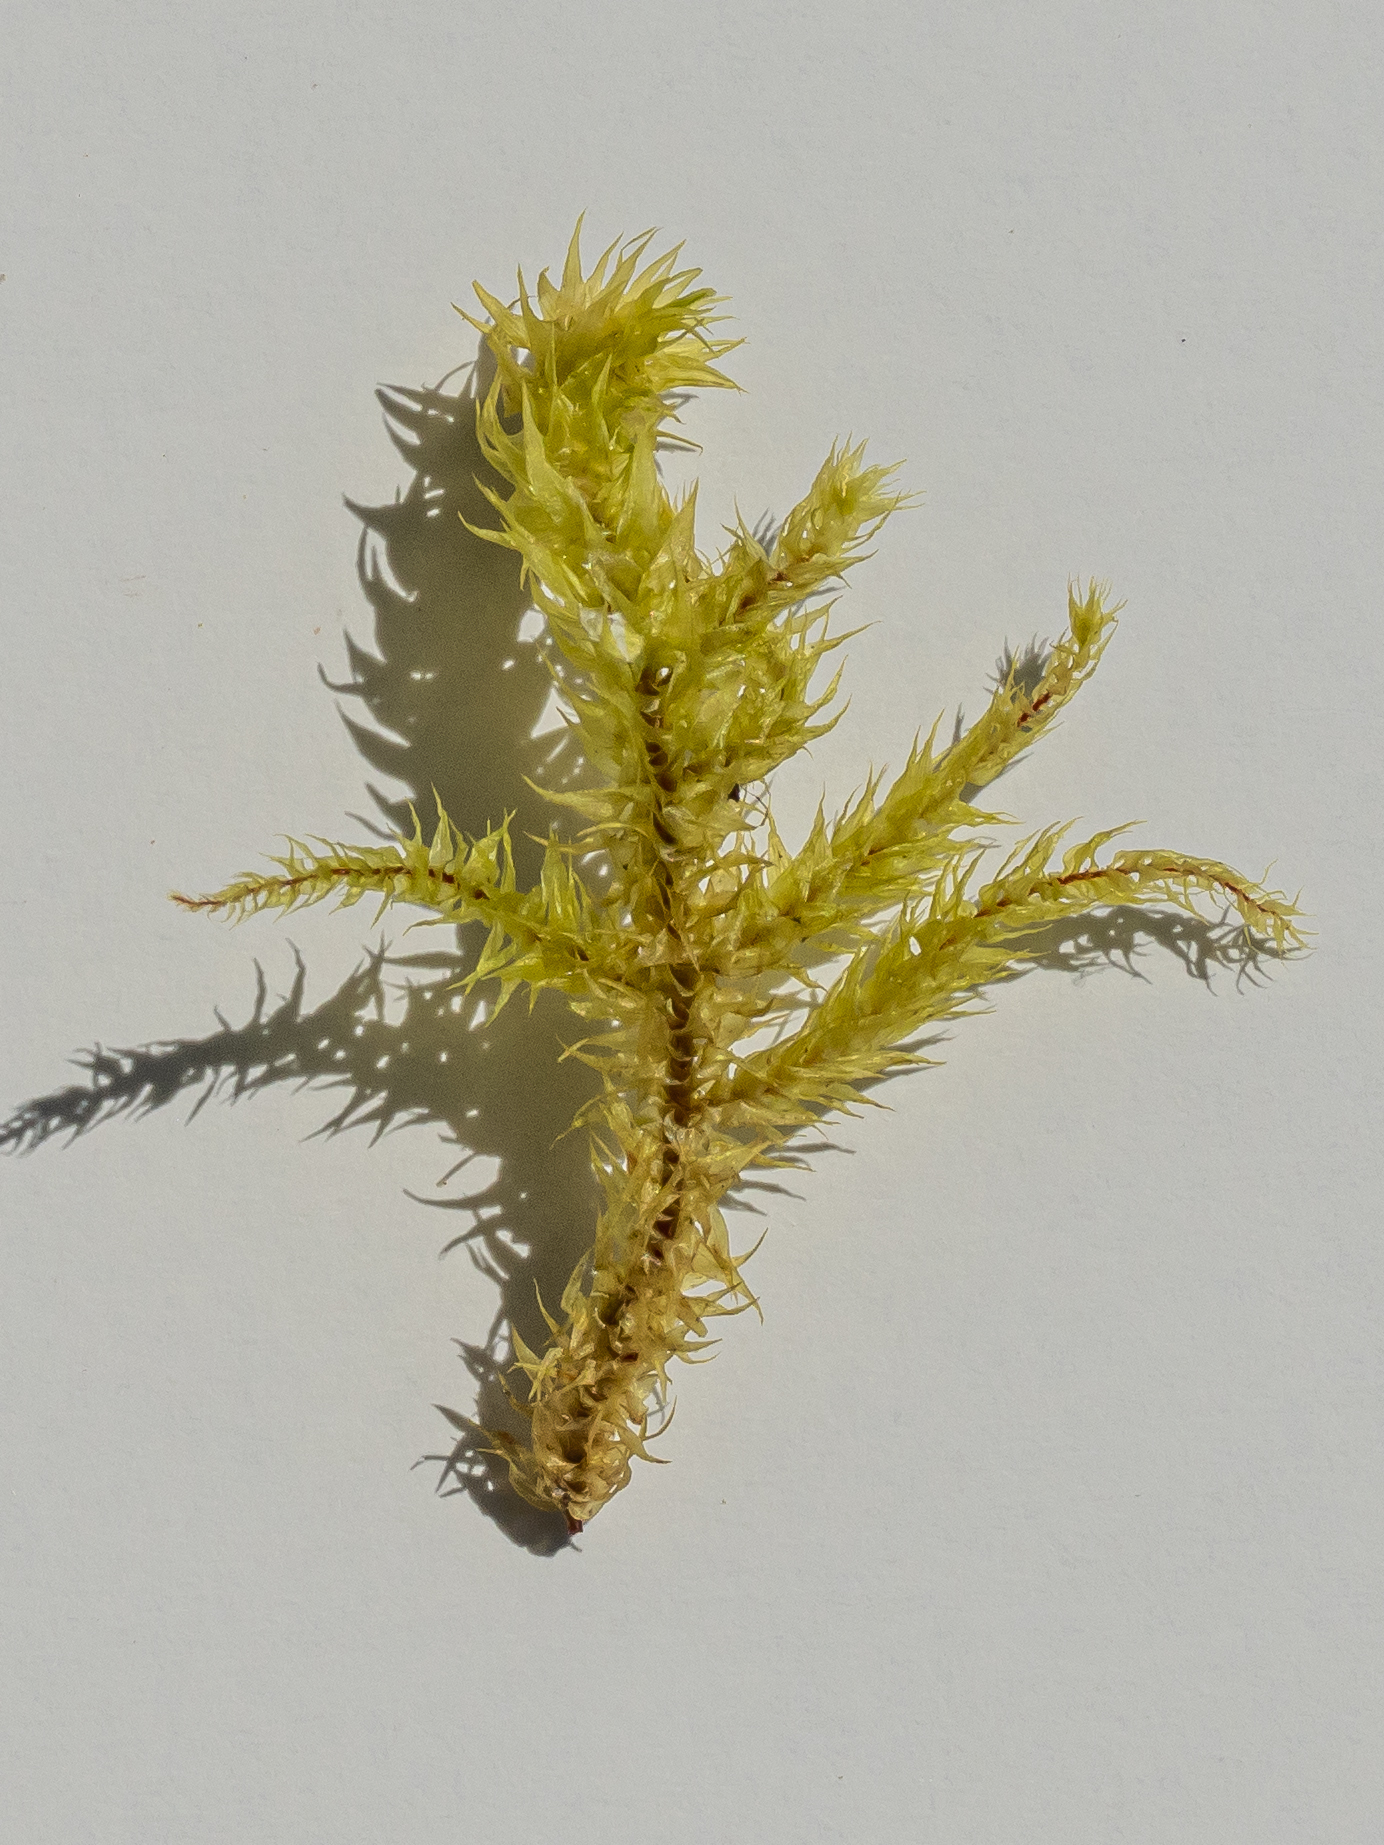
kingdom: Plantae
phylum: Bryophyta
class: Bryopsida
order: Hypnales
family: Hylocomiaceae
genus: Hylocomiadelphus
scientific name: Hylocomiadelphus triquetrus
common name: Rough goose neck moss
